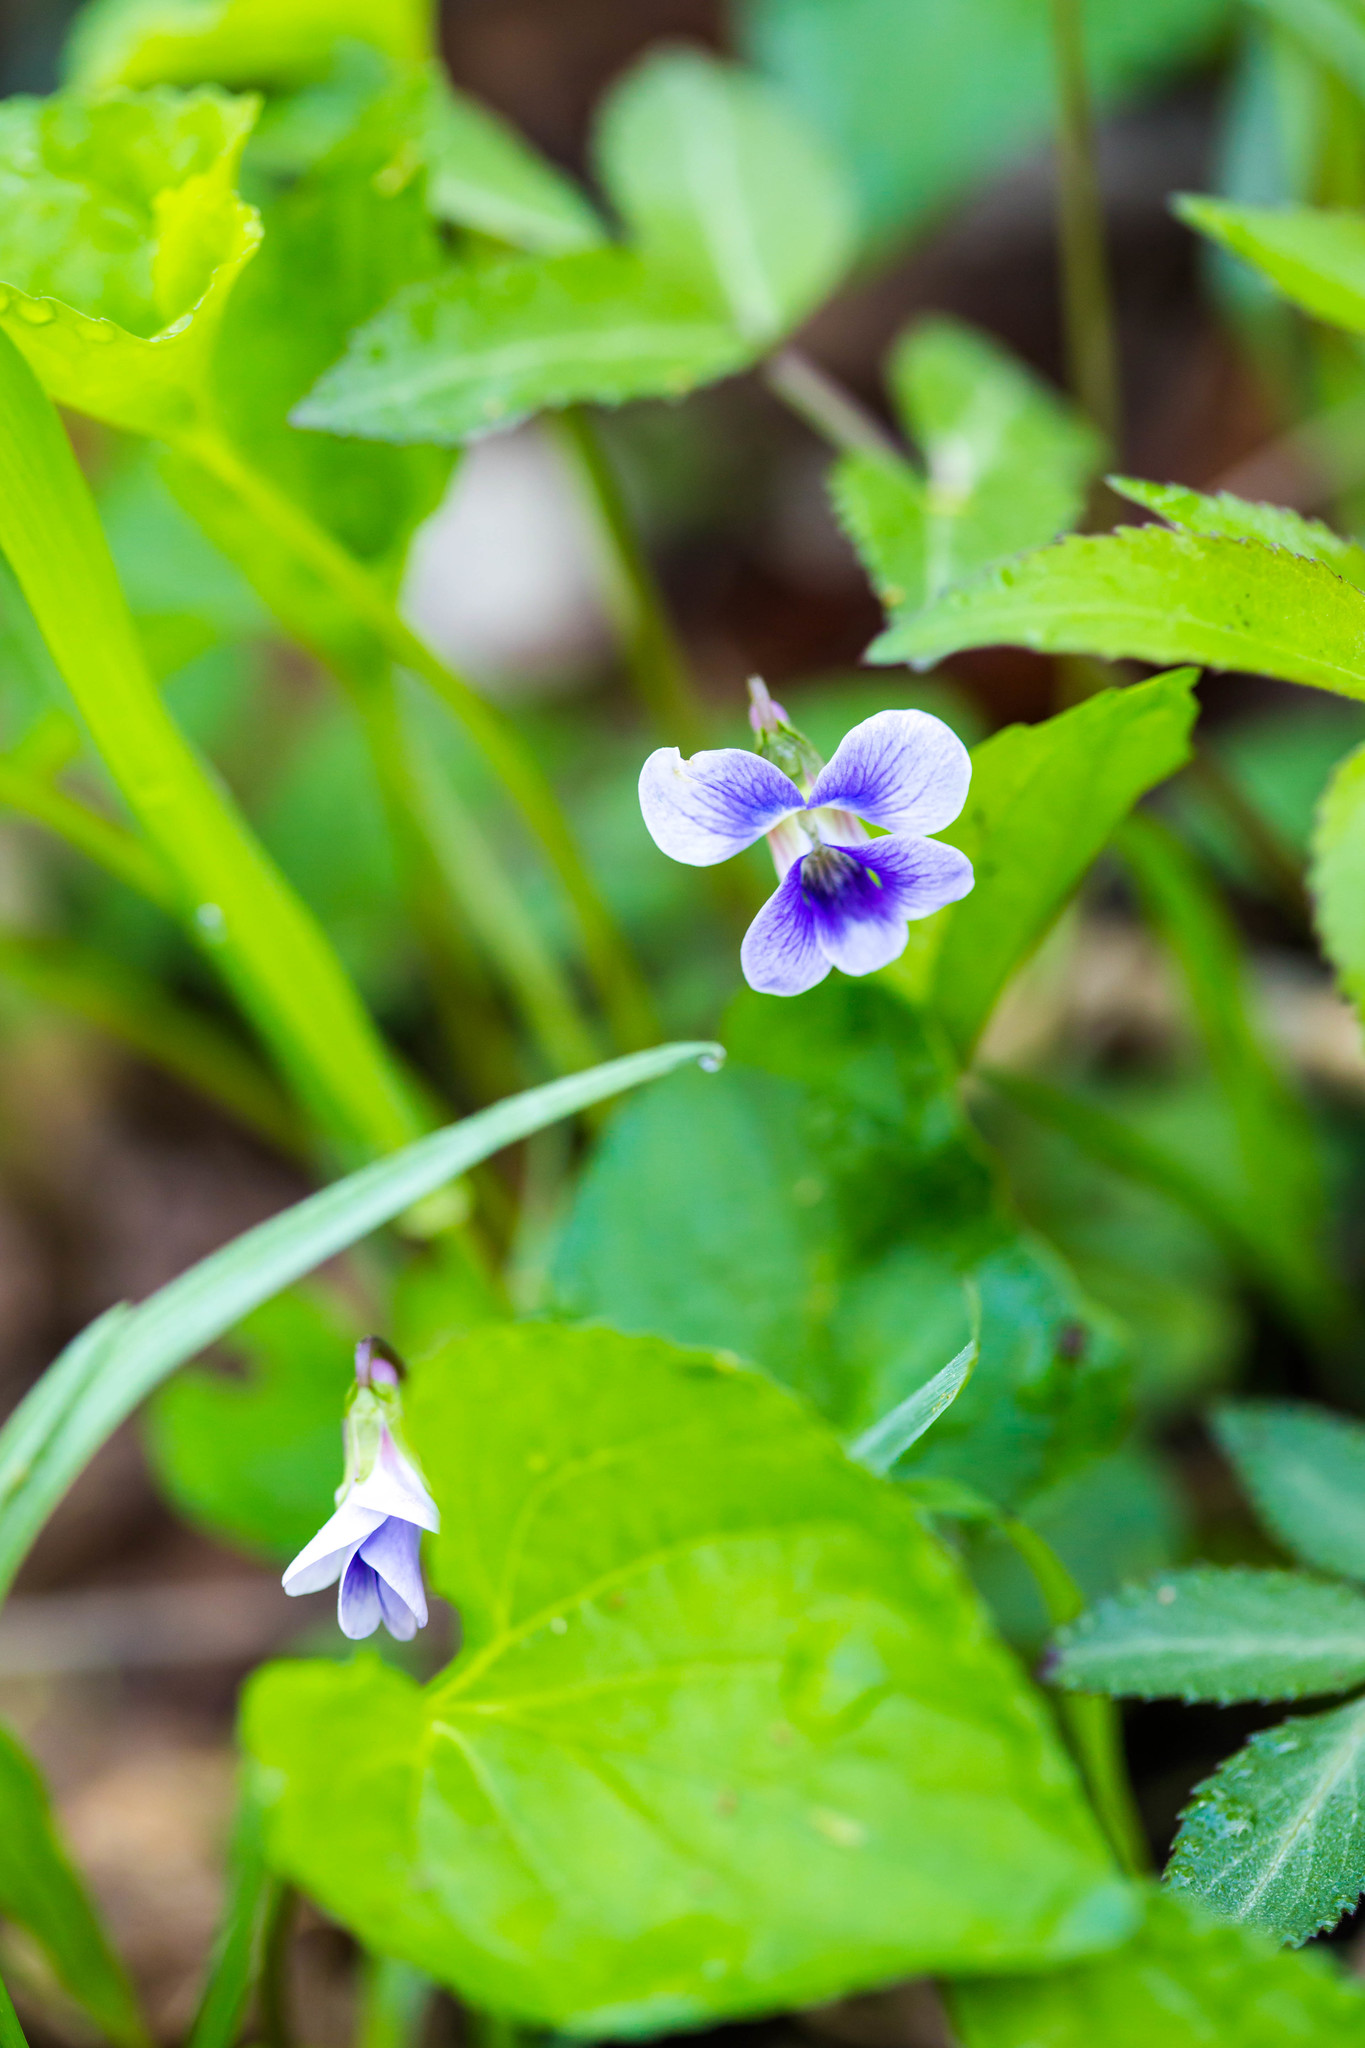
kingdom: Plantae
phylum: Tracheophyta
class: Magnoliopsida
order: Malpighiales
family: Violaceae
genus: Viola
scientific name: Viola sororia
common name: Dooryard violet
